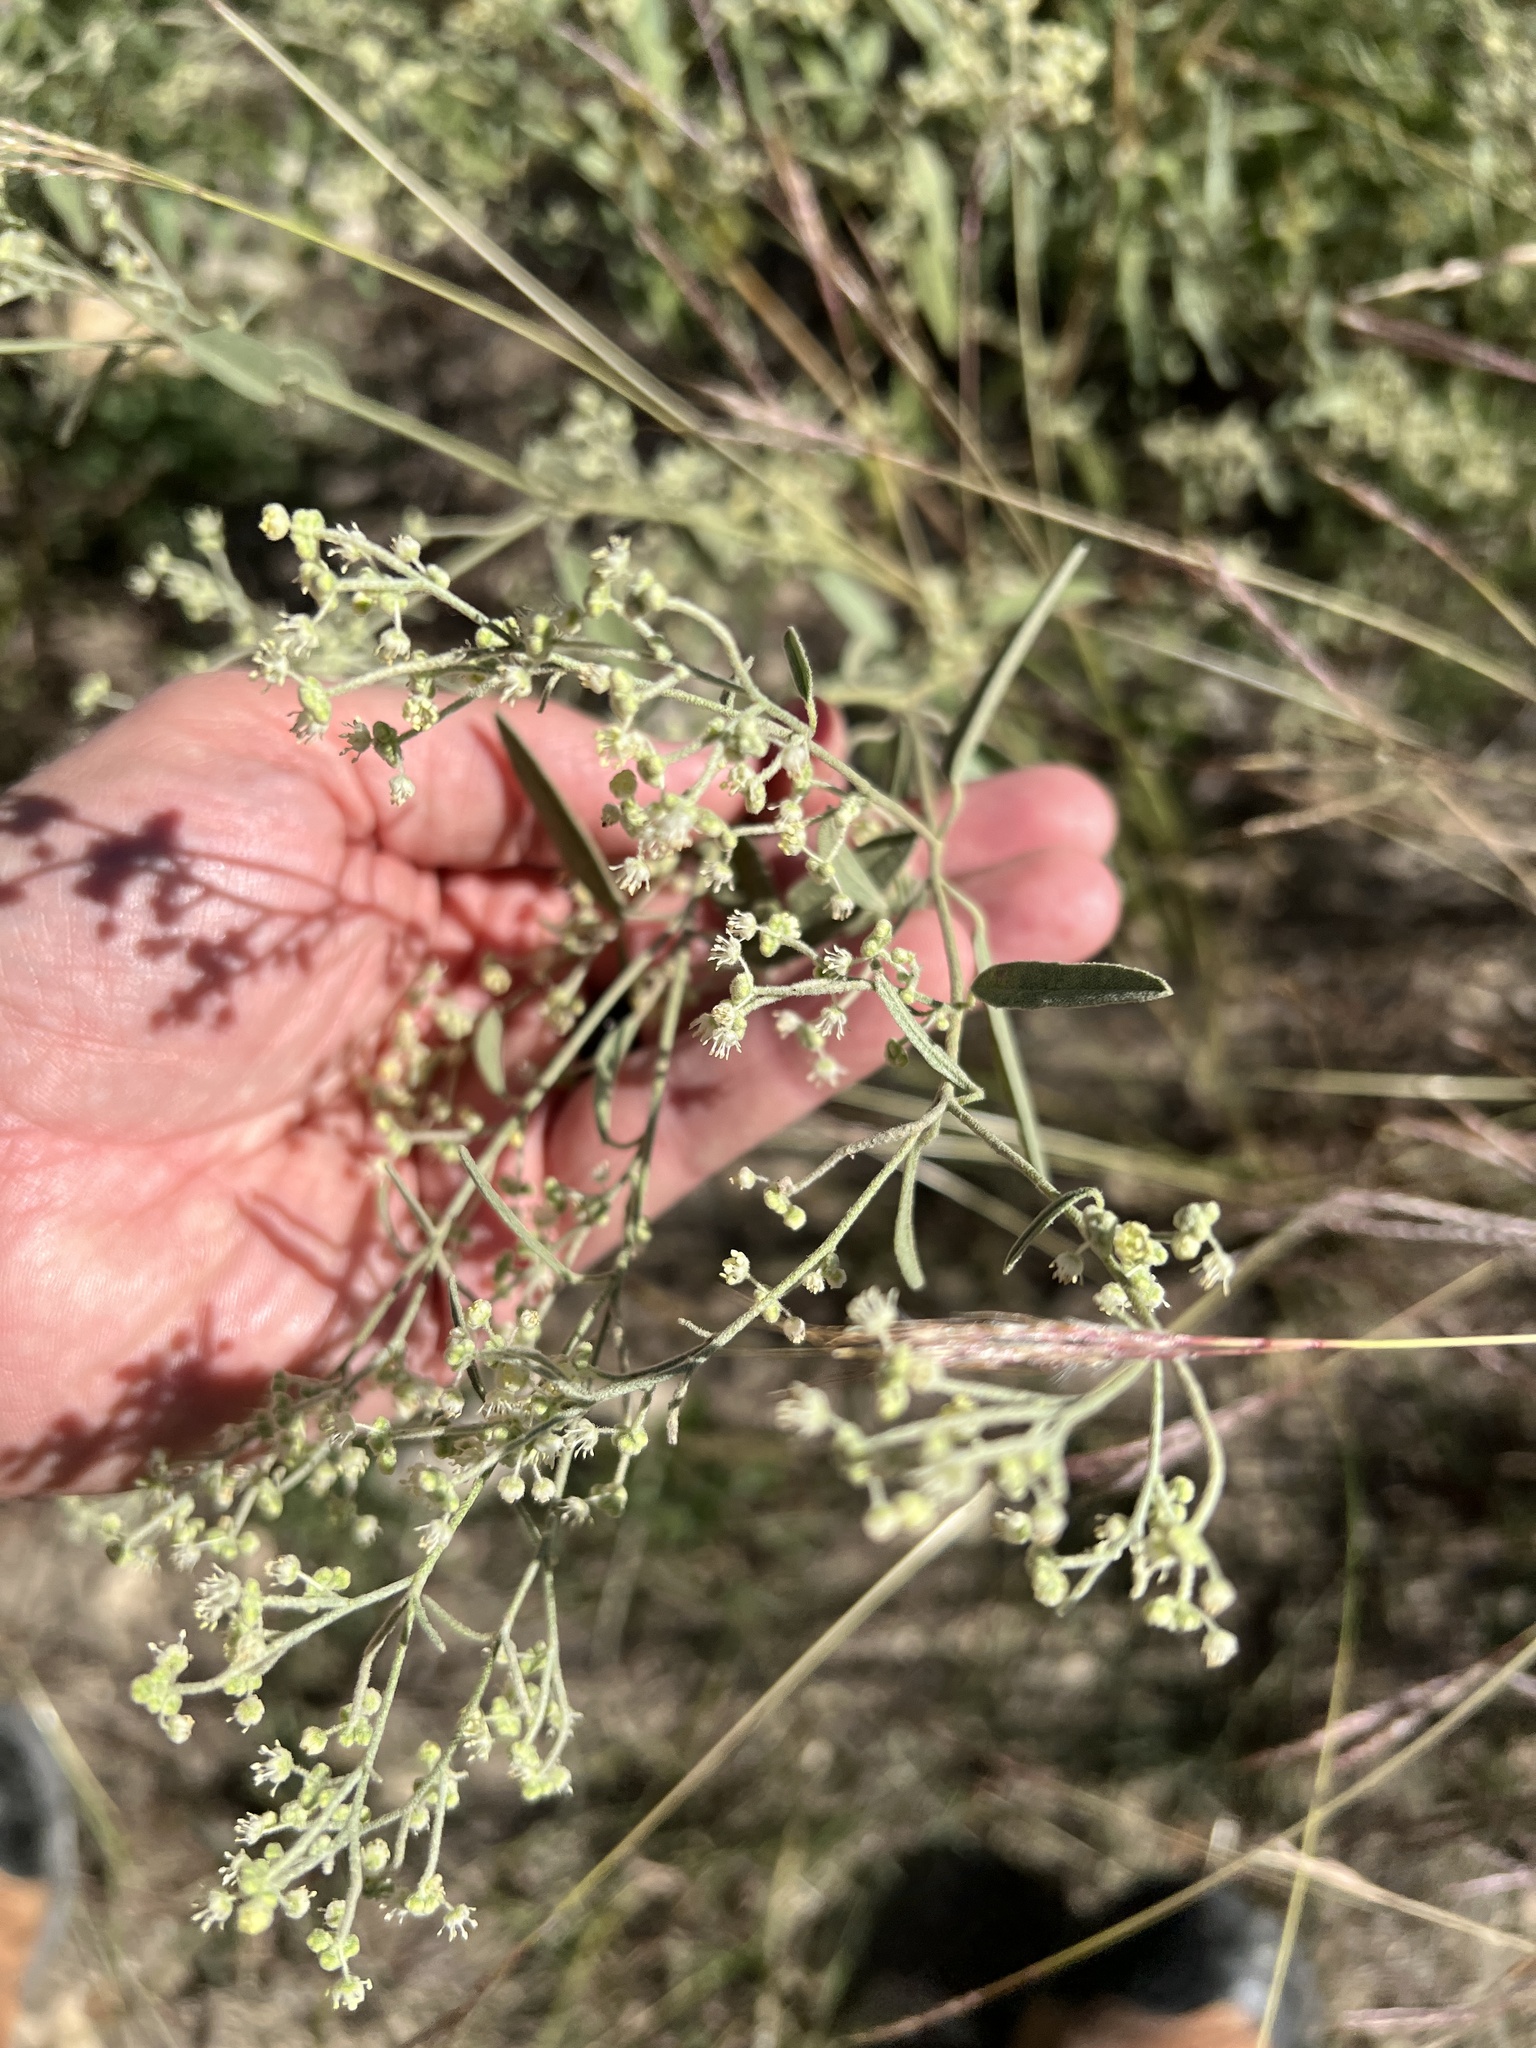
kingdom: Plantae
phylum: Tracheophyta
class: Magnoliopsida
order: Malpighiales
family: Euphorbiaceae
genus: Croton
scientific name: Croton texensis
